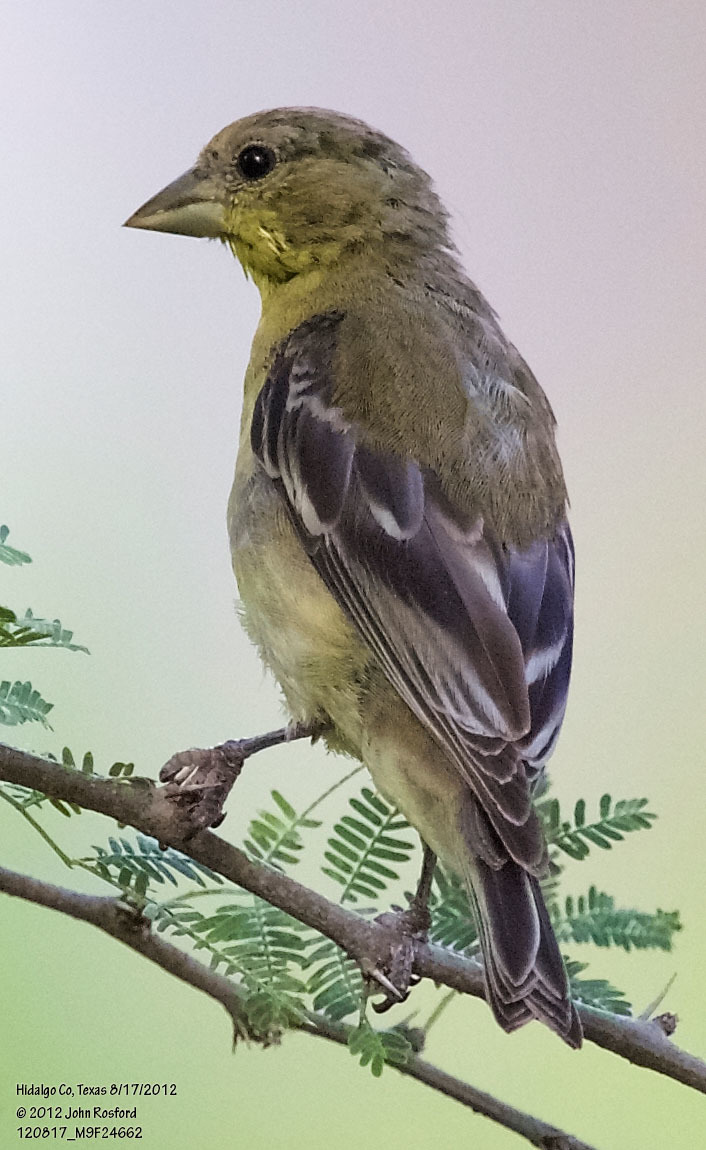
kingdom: Animalia
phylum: Chordata
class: Aves
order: Passeriformes
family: Fringillidae
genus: Spinus
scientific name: Spinus psaltria
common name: Lesser goldfinch
